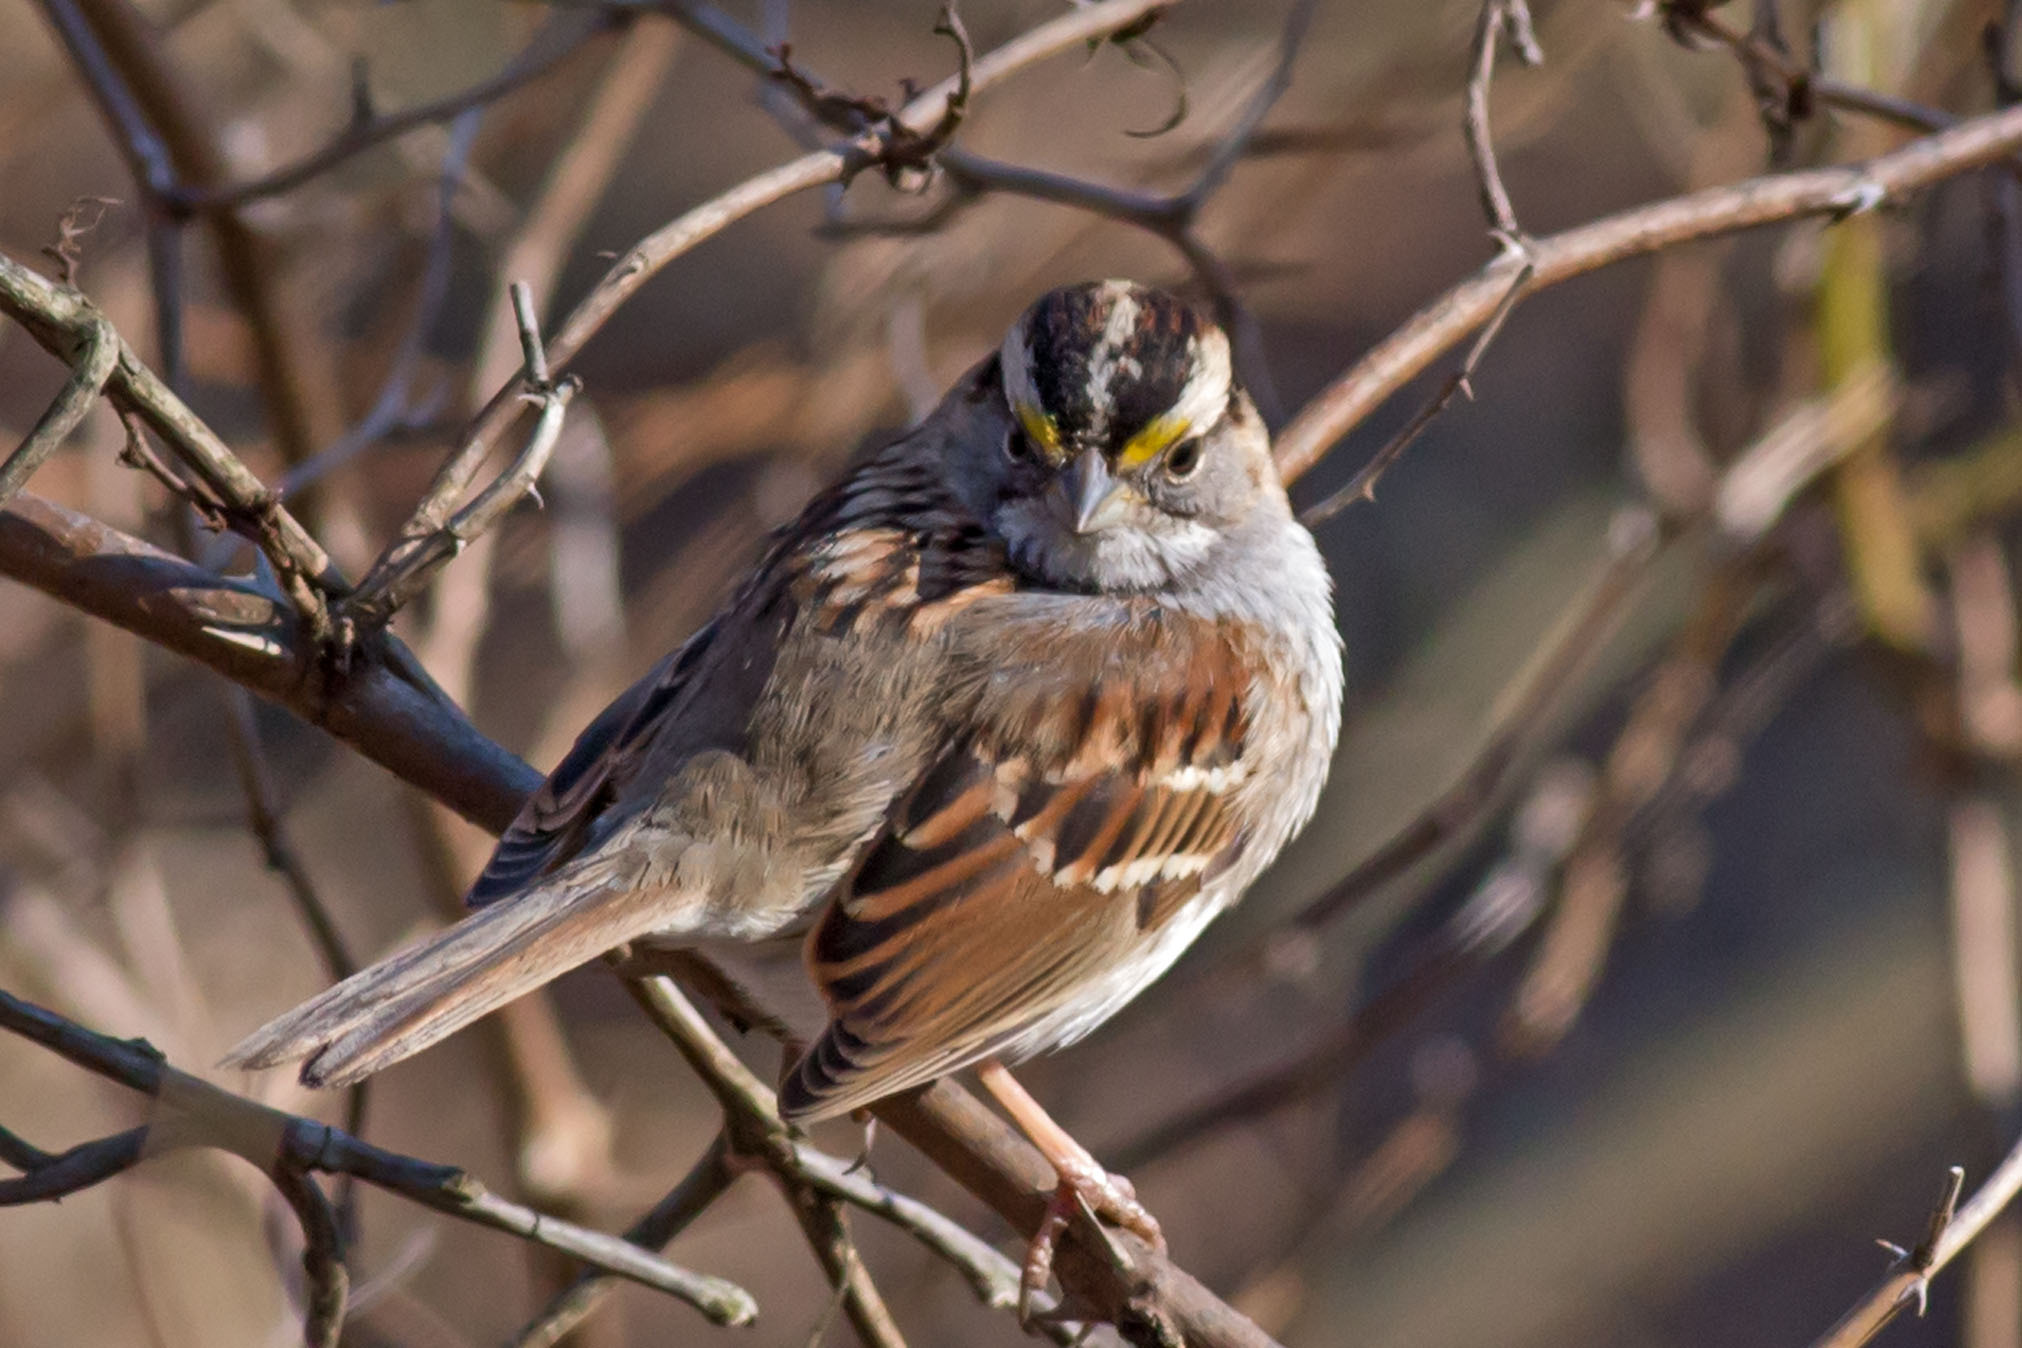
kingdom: Animalia
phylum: Chordata
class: Aves
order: Passeriformes
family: Passerellidae
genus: Zonotrichia
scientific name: Zonotrichia albicollis
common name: White-throated sparrow
